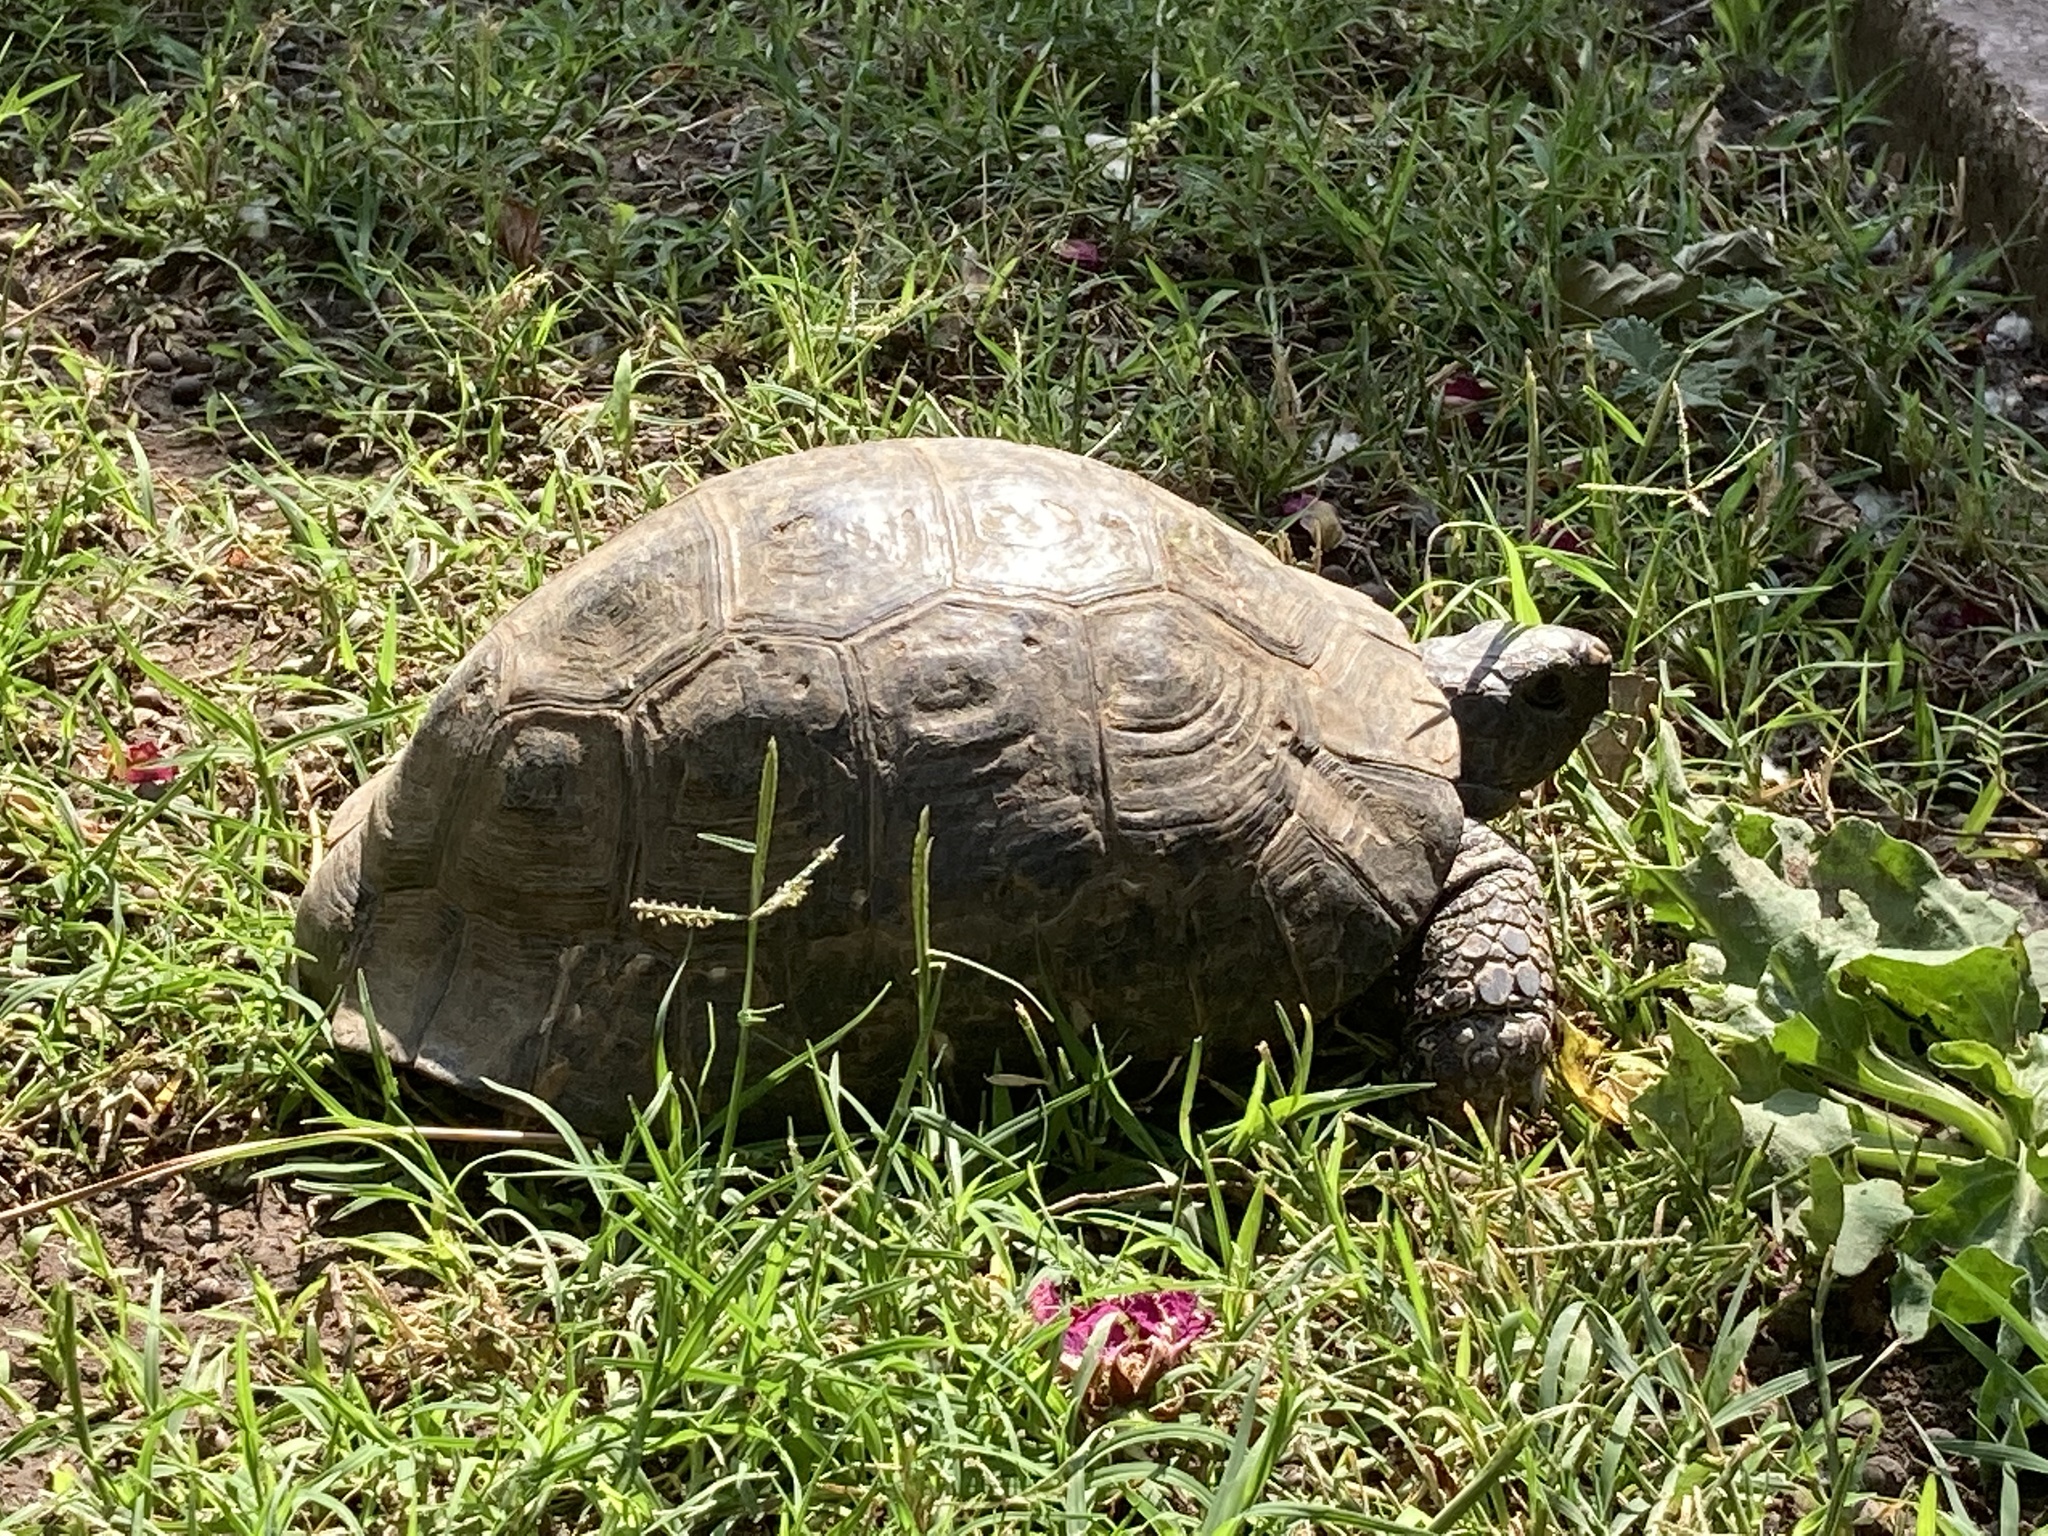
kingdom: Animalia
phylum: Chordata
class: Testudines
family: Testudinidae
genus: Testudo
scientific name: Testudo graeca
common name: Common tortoise
